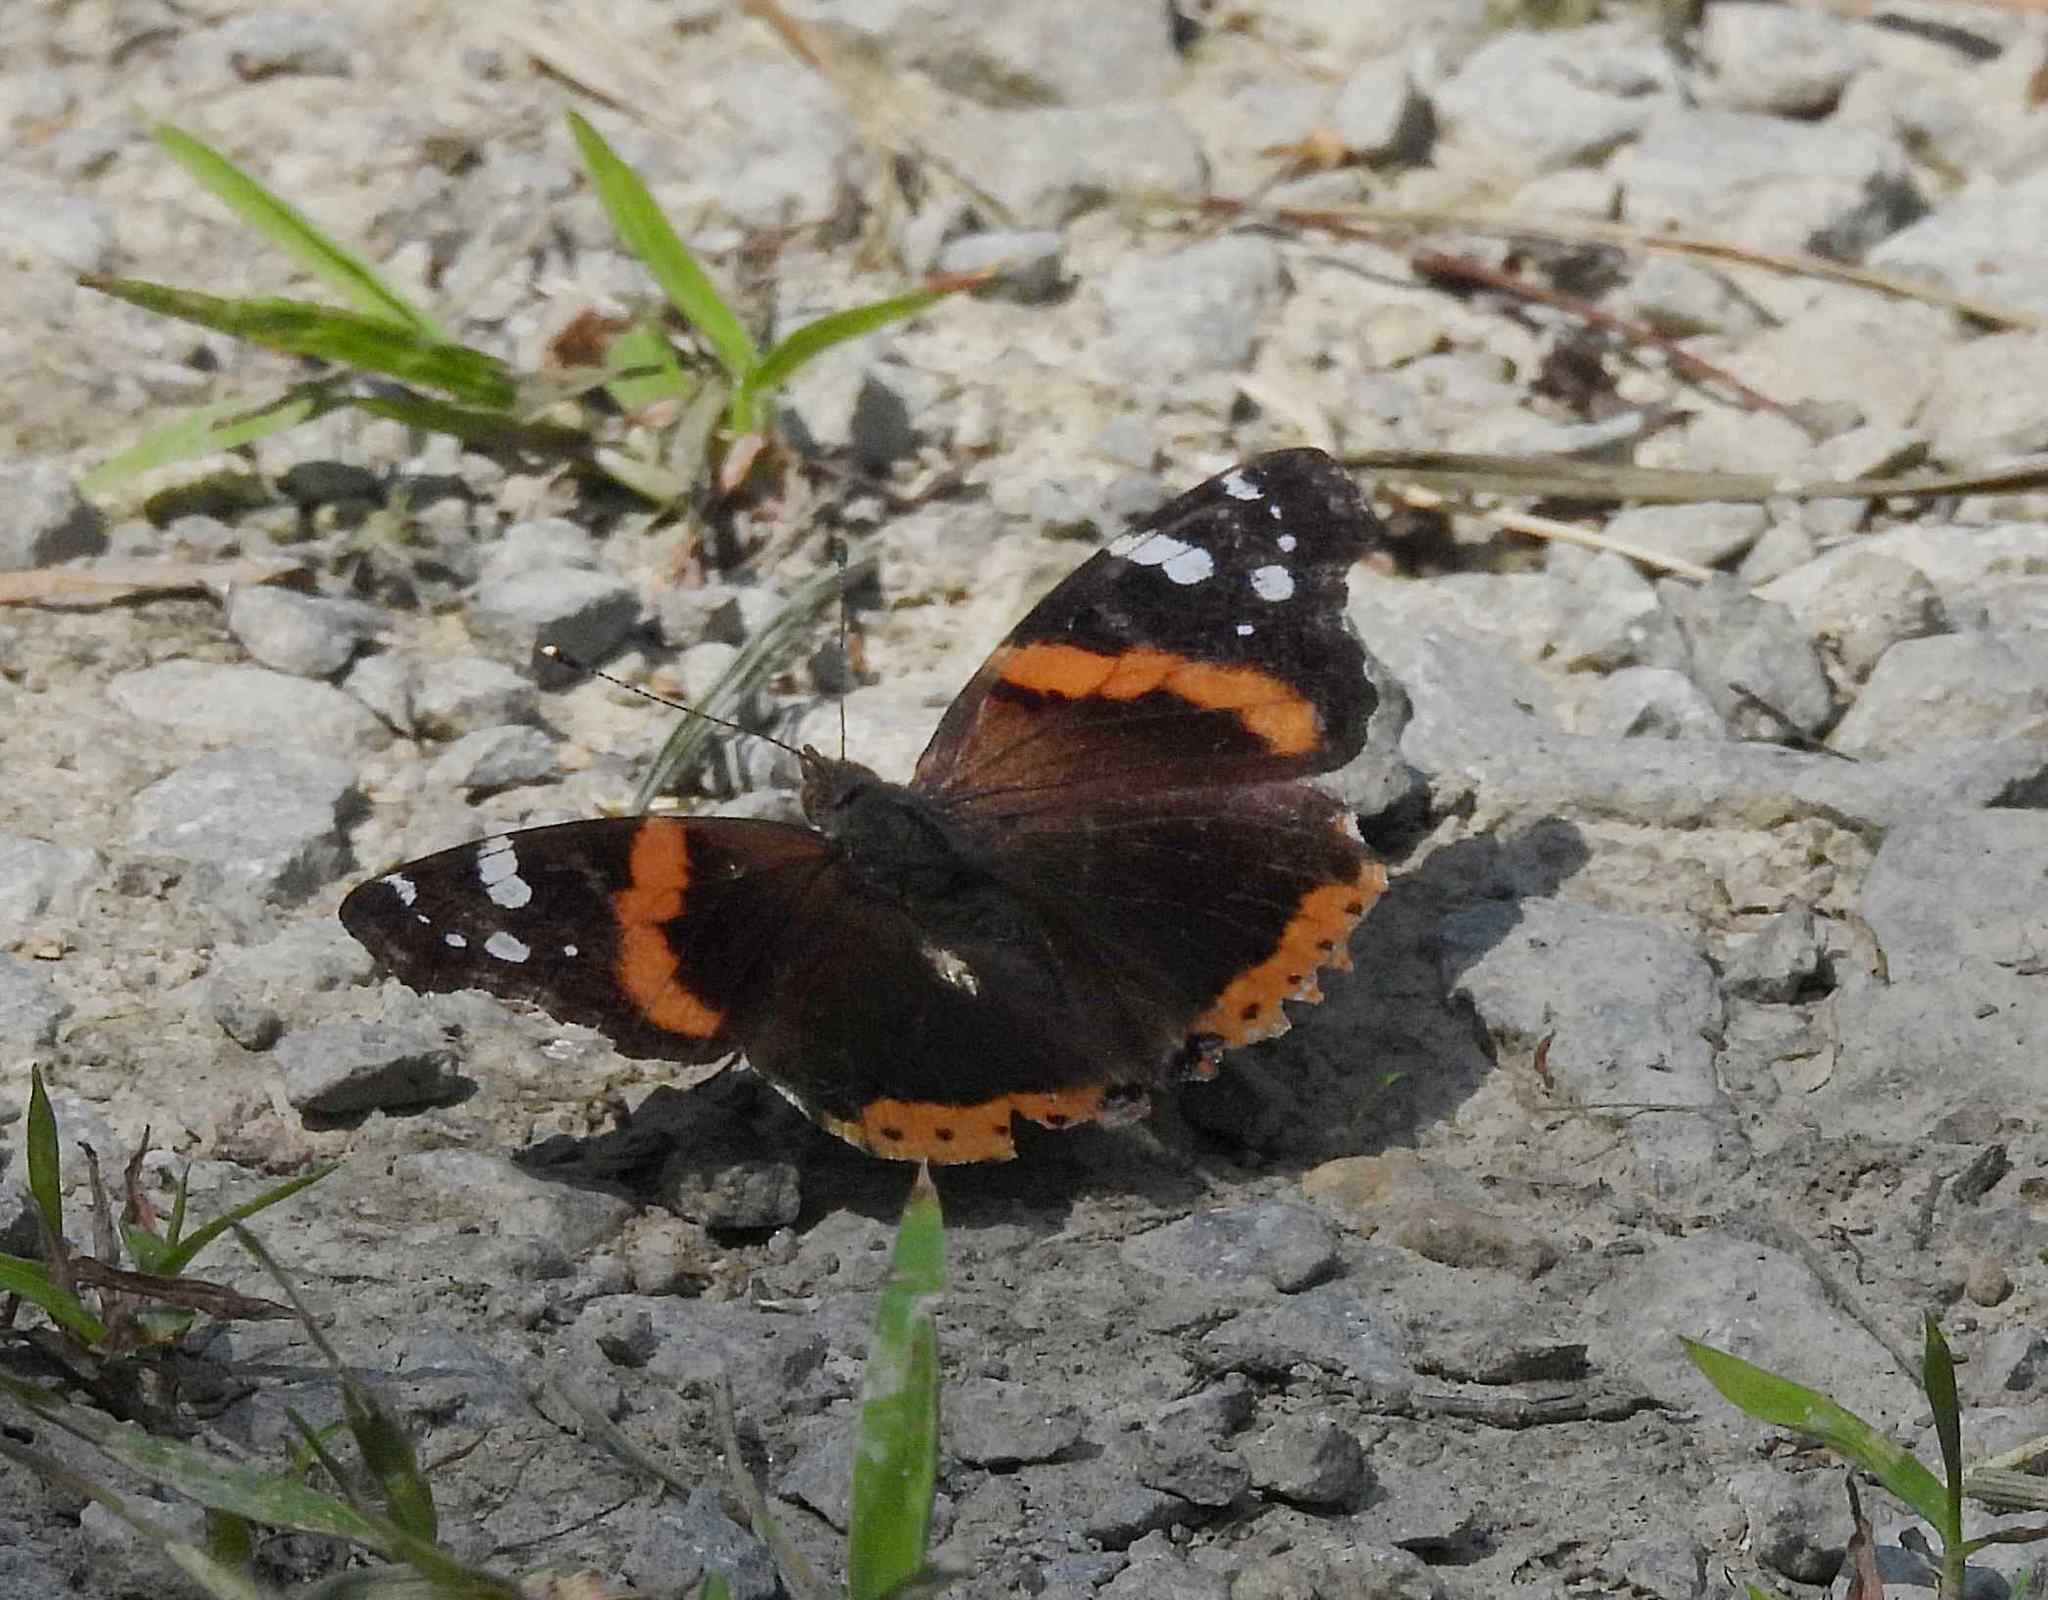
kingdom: Animalia
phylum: Arthropoda
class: Insecta
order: Lepidoptera
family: Nymphalidae
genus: Vanessa
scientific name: Vanessa atalanta
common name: Red admiral
